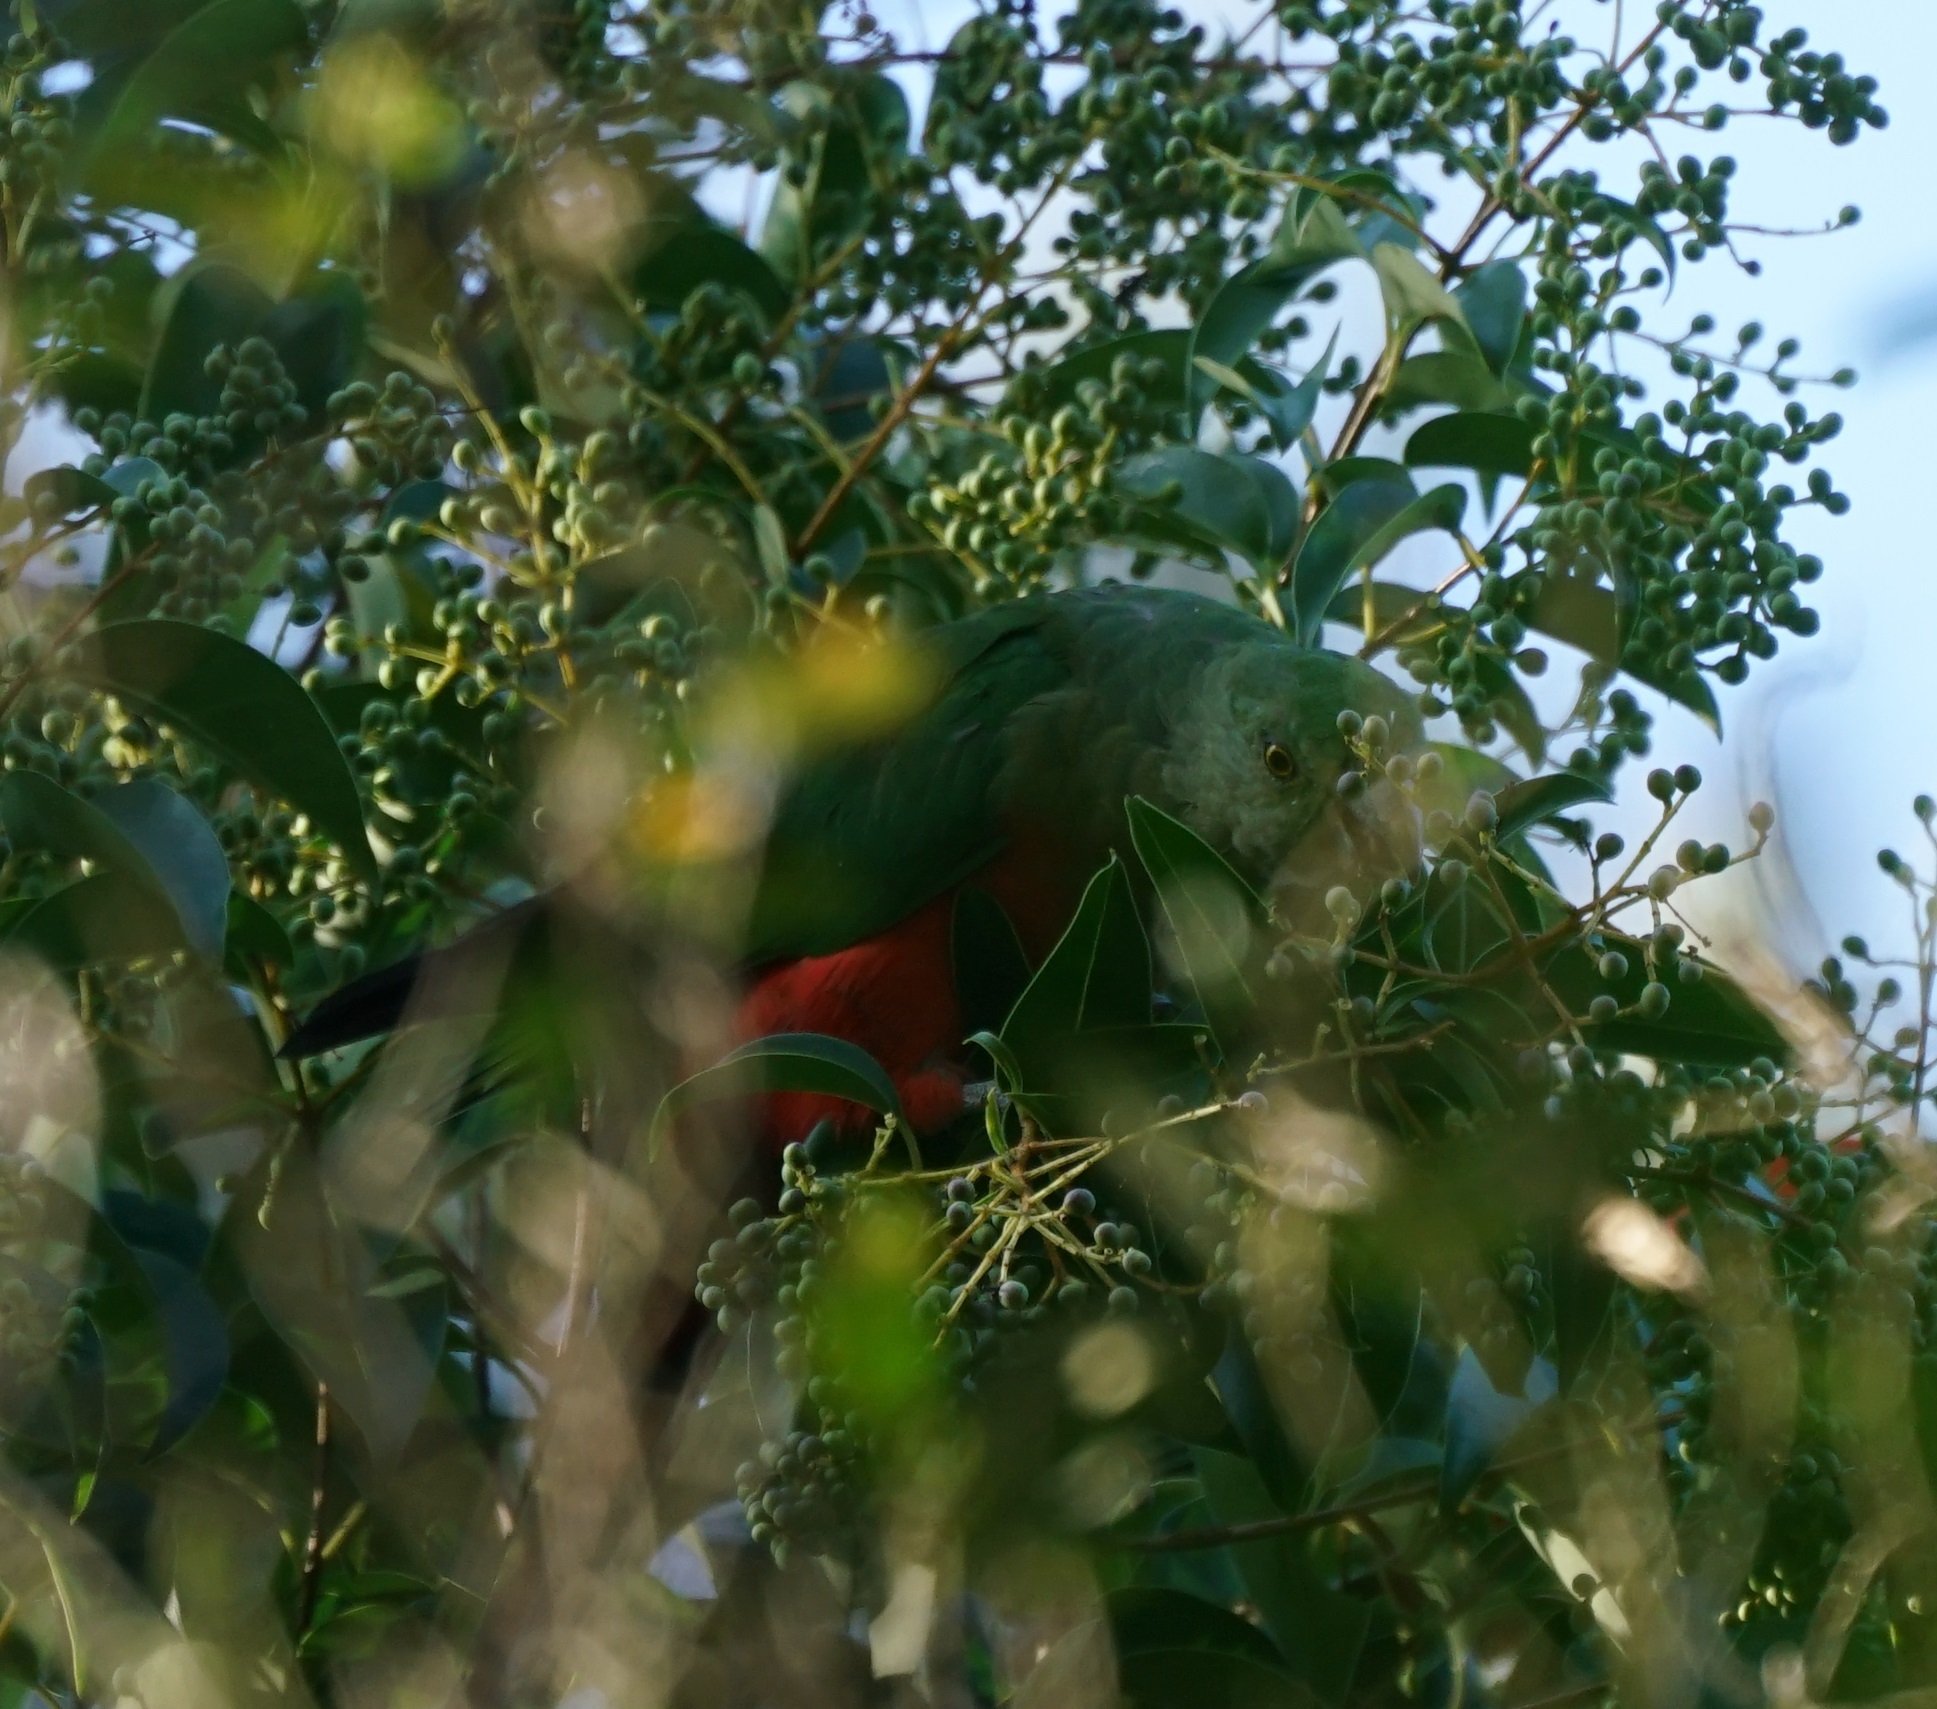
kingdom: Animalia
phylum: Chordata
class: Aves
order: Psittaciformes
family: Psittacidae
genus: Alisterus
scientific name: Alisterus scapularis
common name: Australian king parrot
